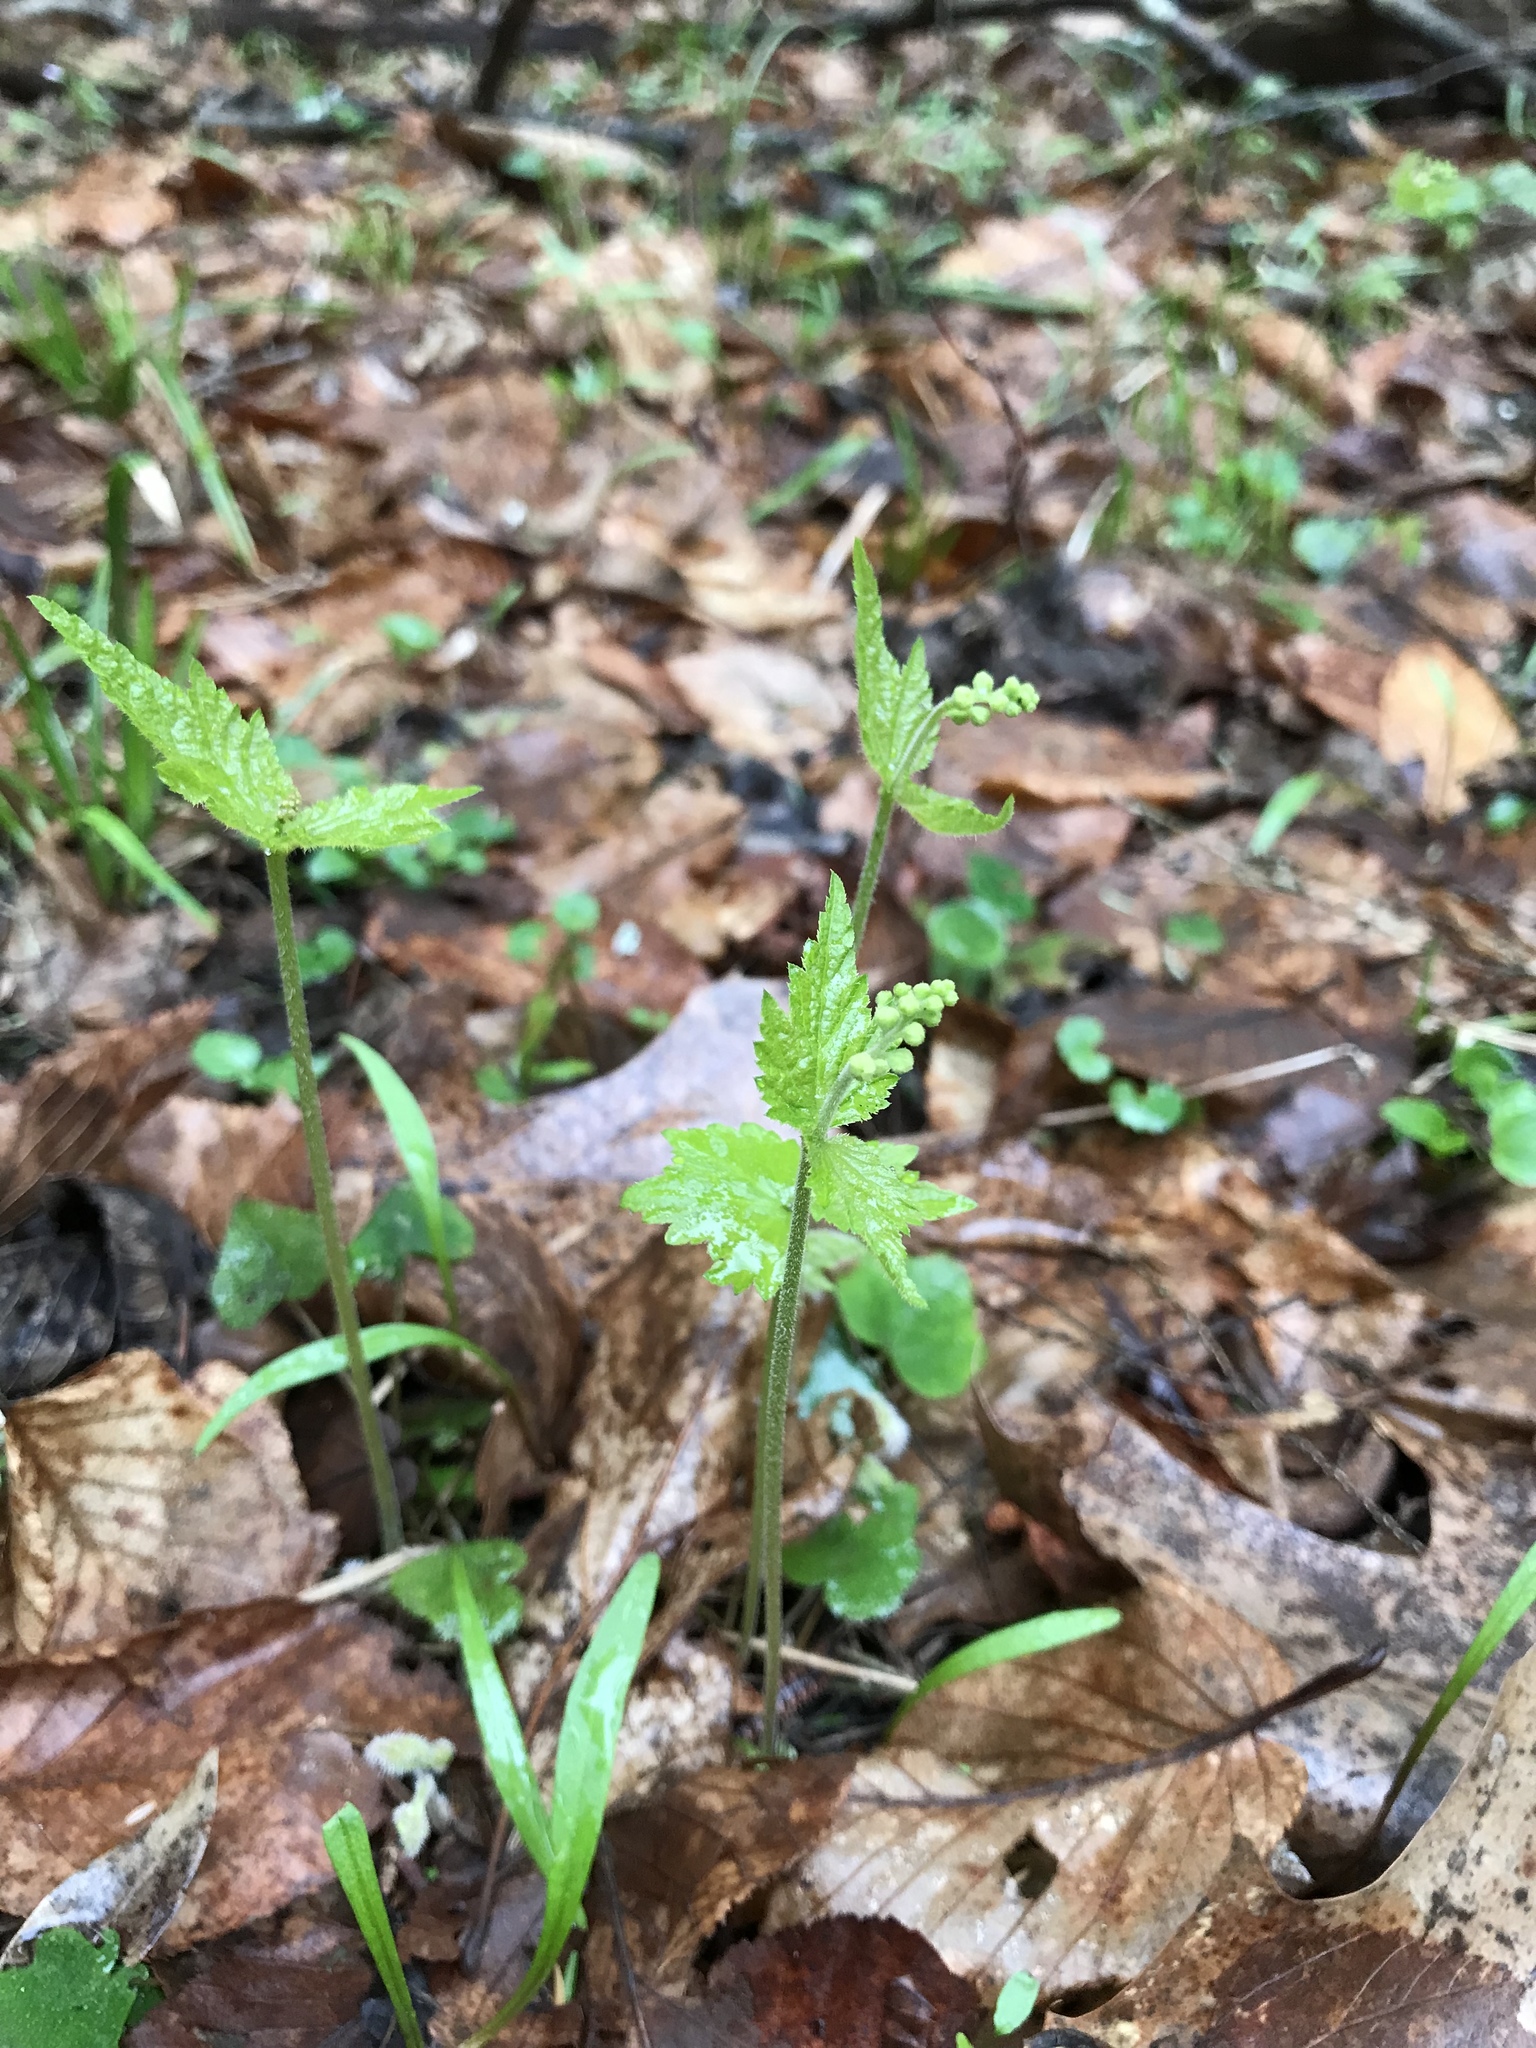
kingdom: Plantae
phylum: Tracheophyta
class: Magnoliopsida
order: Saxifragales
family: Saxifragaceae
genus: Mitella
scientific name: Mitella diphylla
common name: Coolwort
